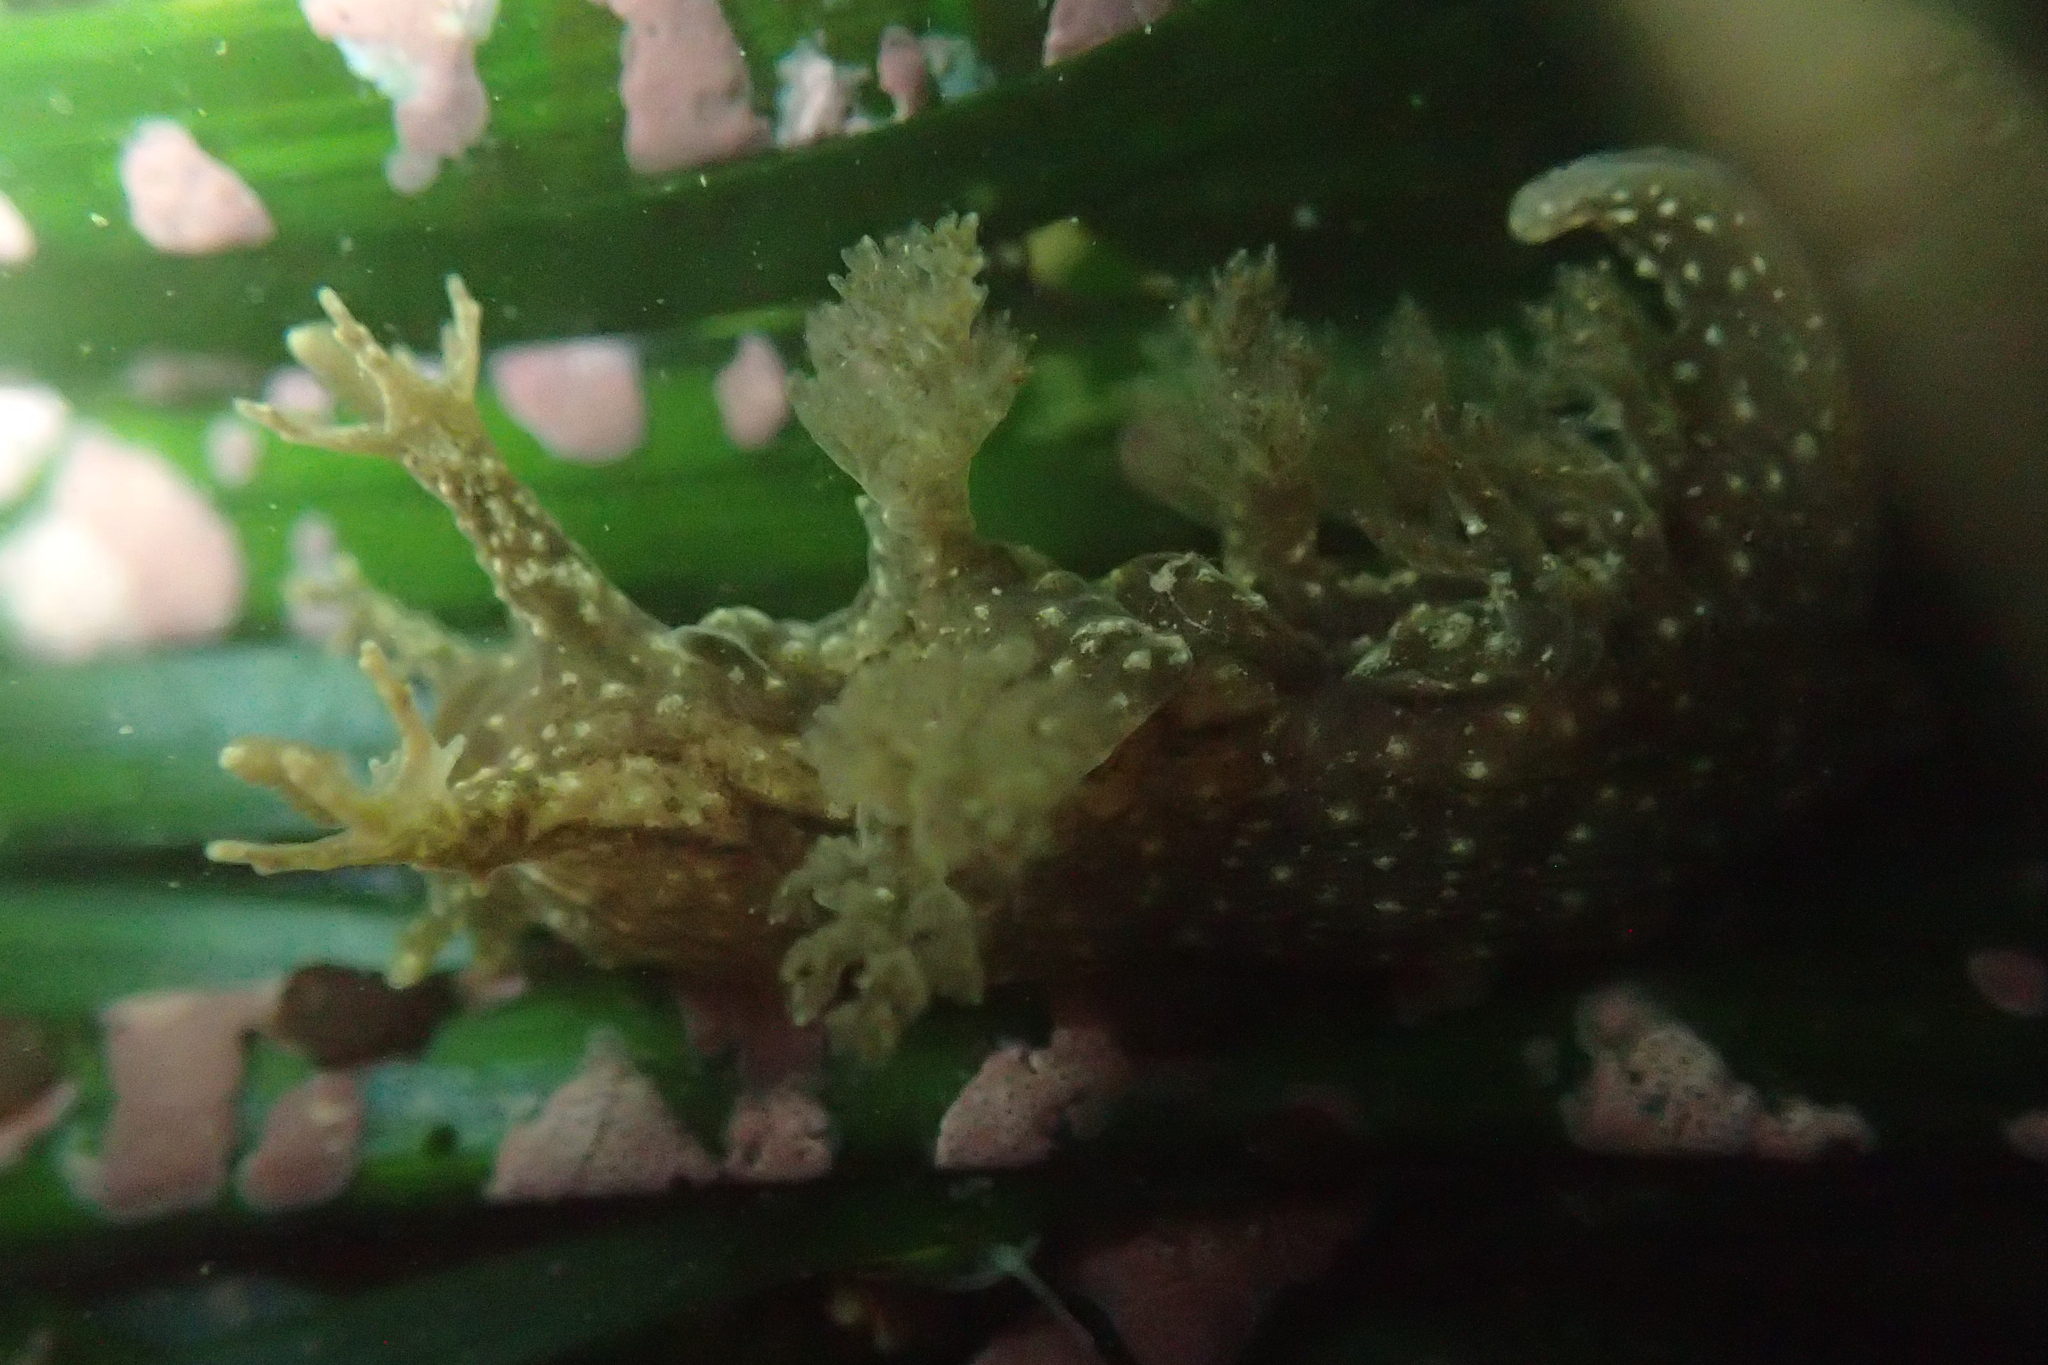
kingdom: Animalia
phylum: Mollusca
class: Gastropoda
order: Nudibranchia
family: Dendronotidae
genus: Dendronotus
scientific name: Dendronotus subramosus
